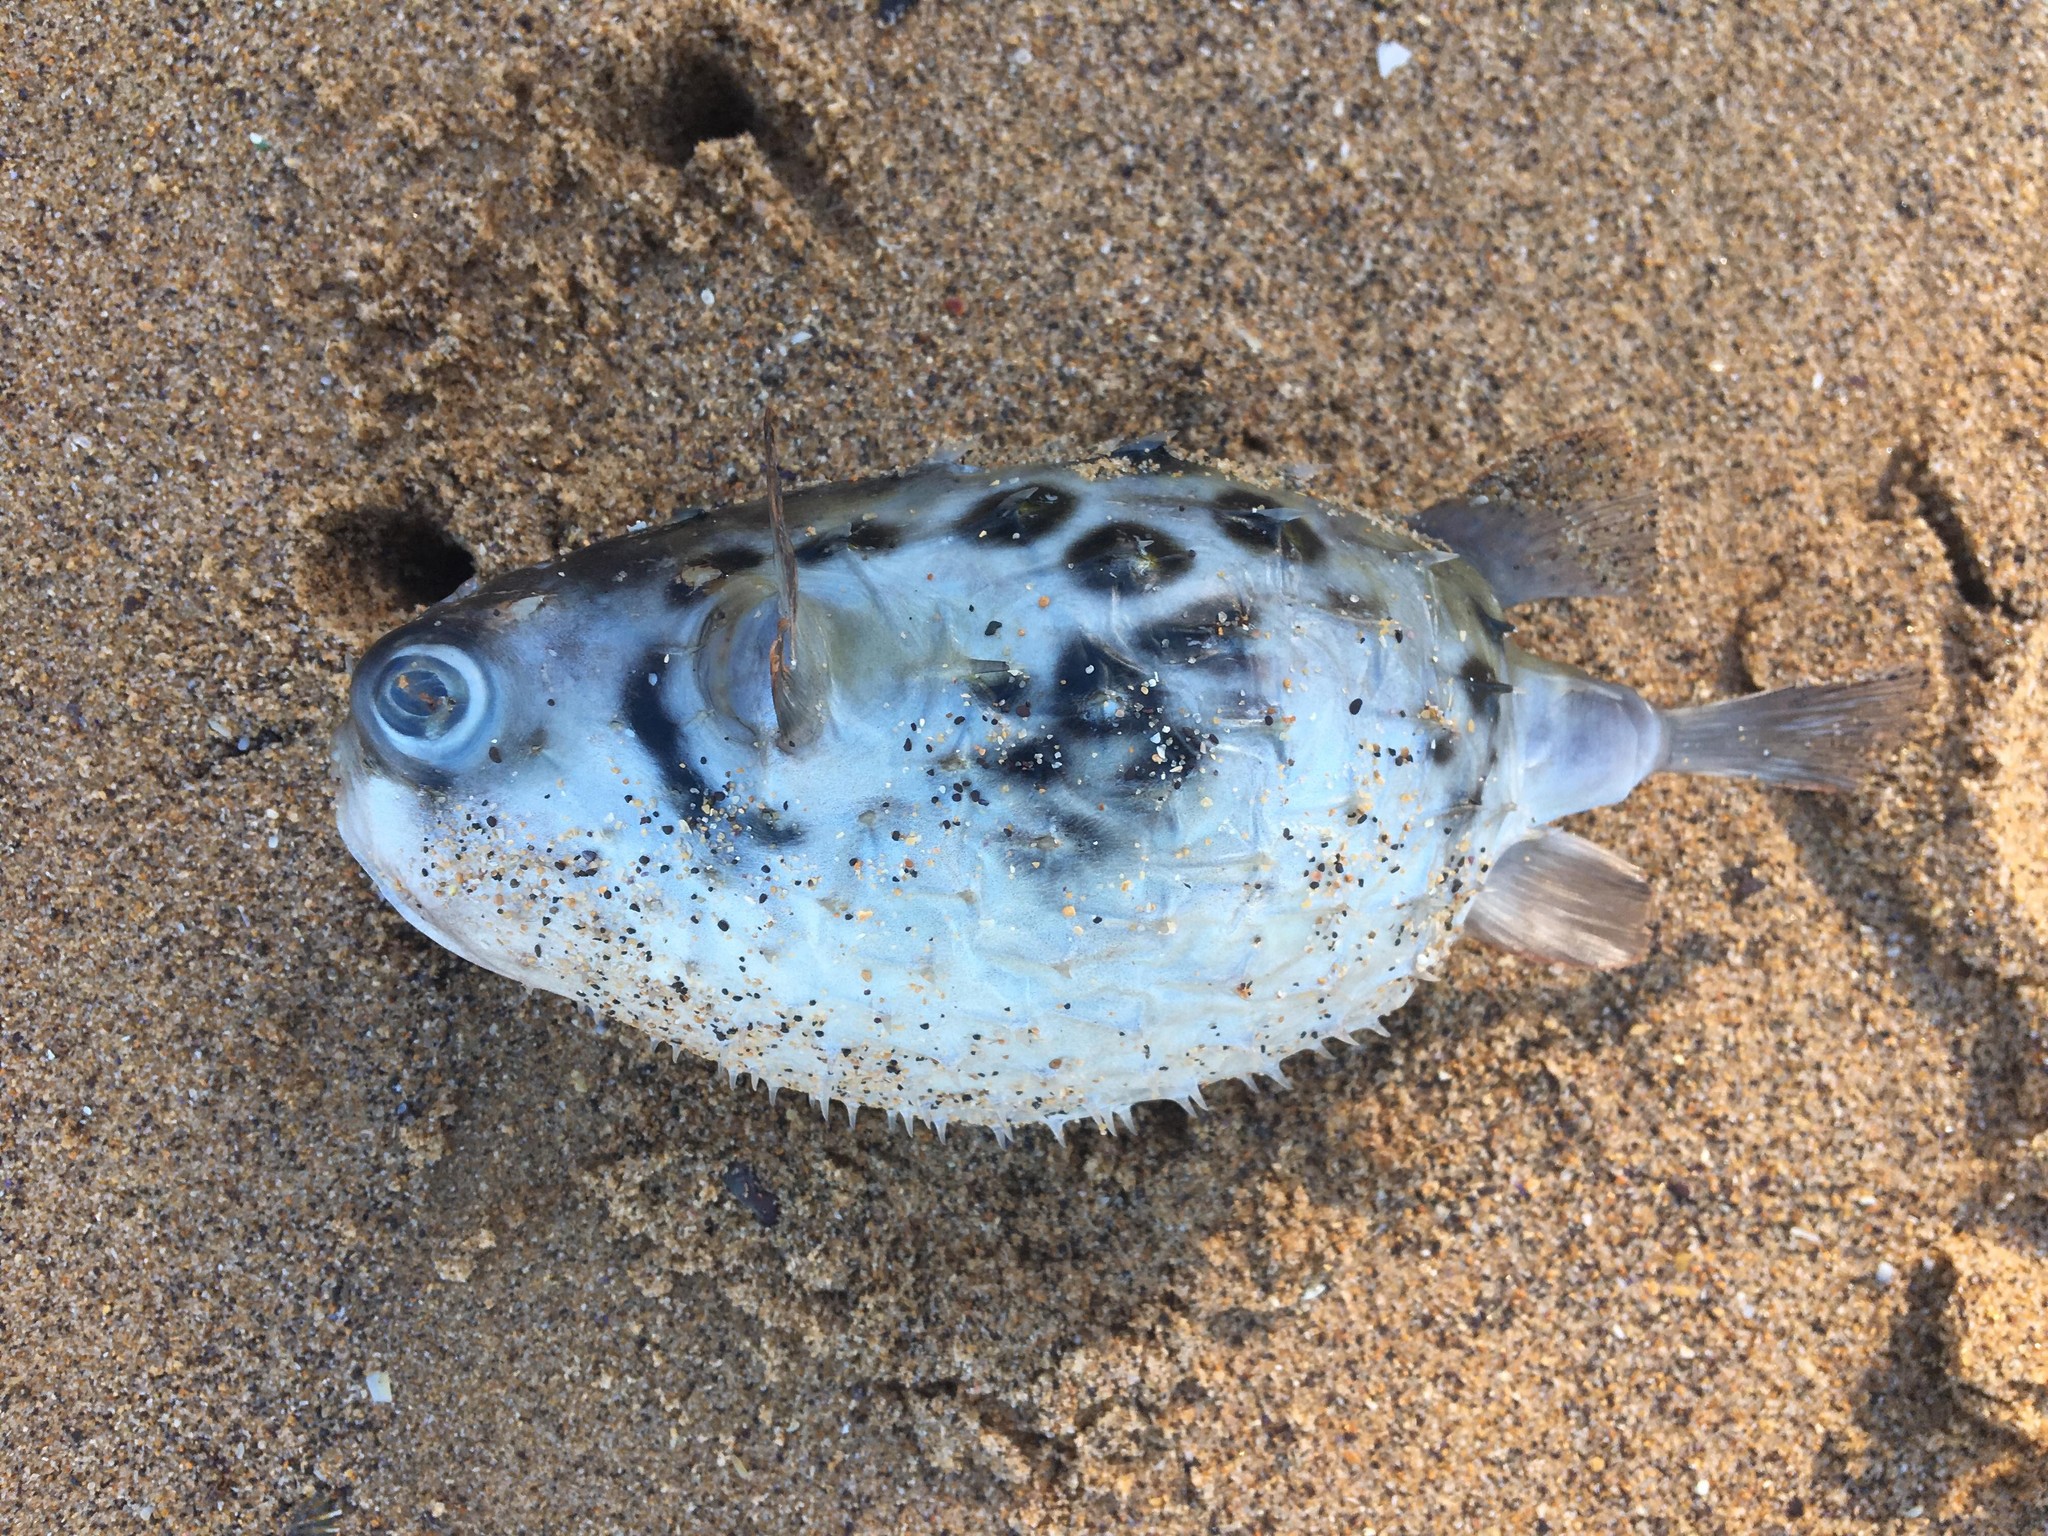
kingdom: Animalia
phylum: Chordata
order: Tetraodontiformes
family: Diodontidae
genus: Allomycterus
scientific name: Allomycterus pilatus
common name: No common name
